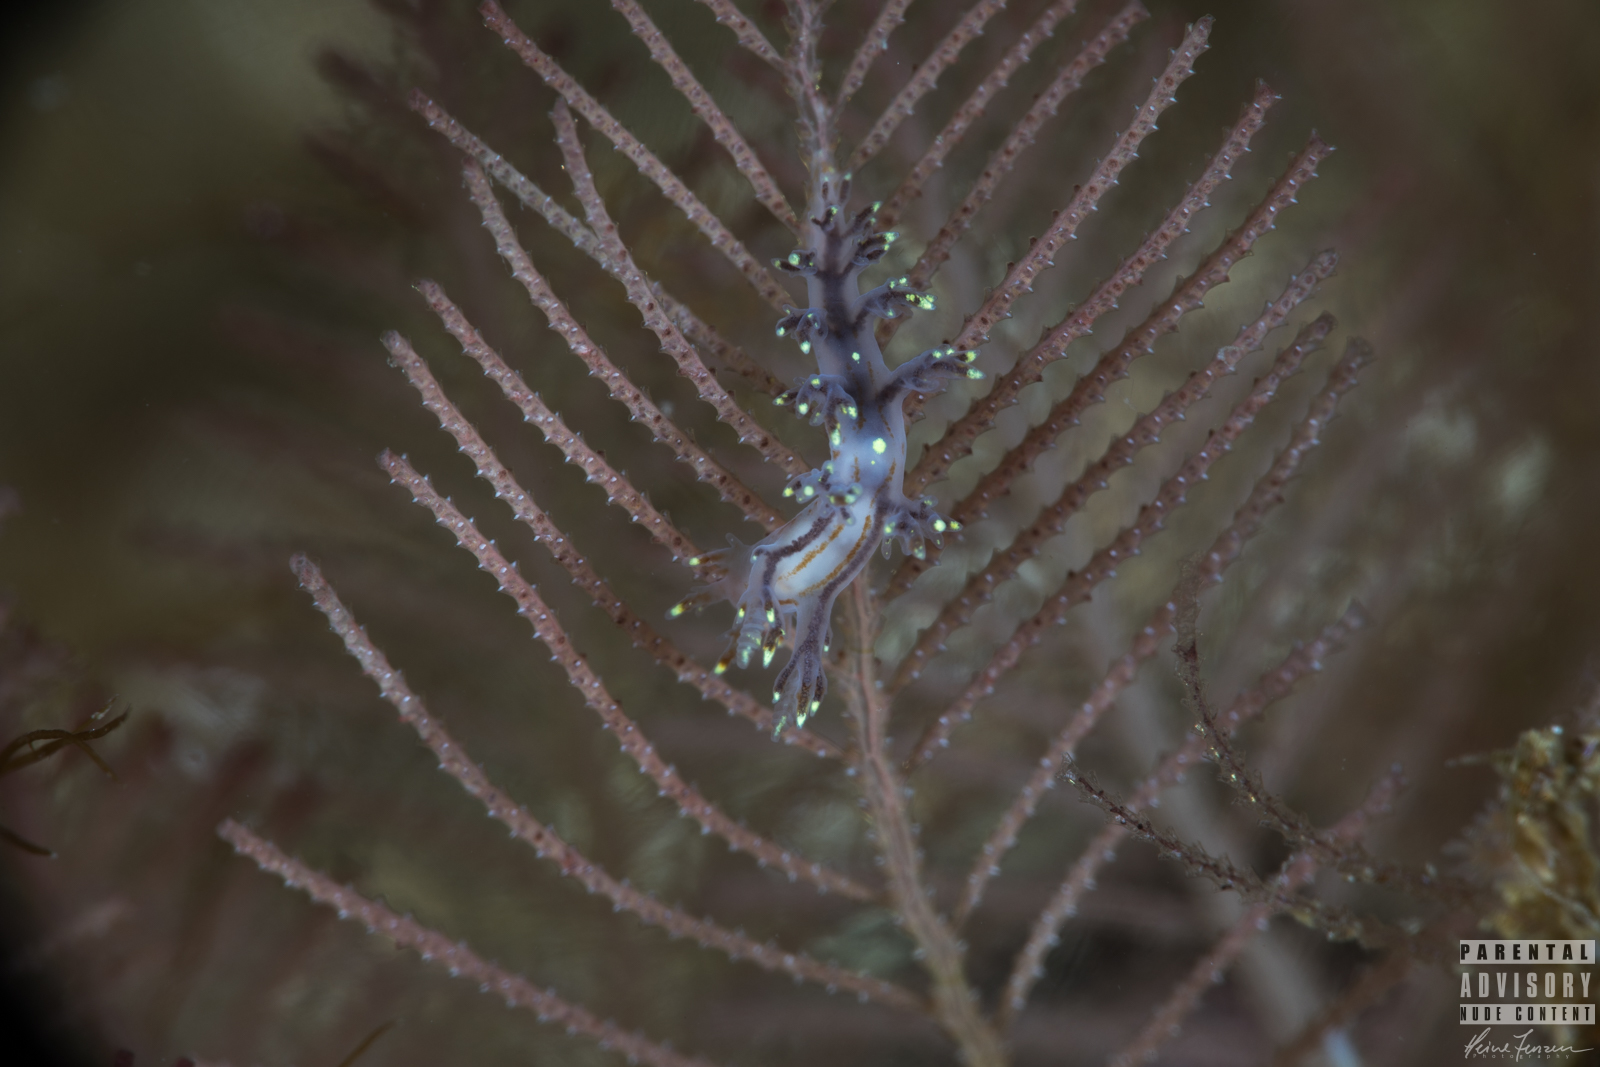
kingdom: Animalia
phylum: Mollusca
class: Gastropoda
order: Nudibranchia
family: Dendronotidae
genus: Dendronotus
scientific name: Dendronotus yrjargul
